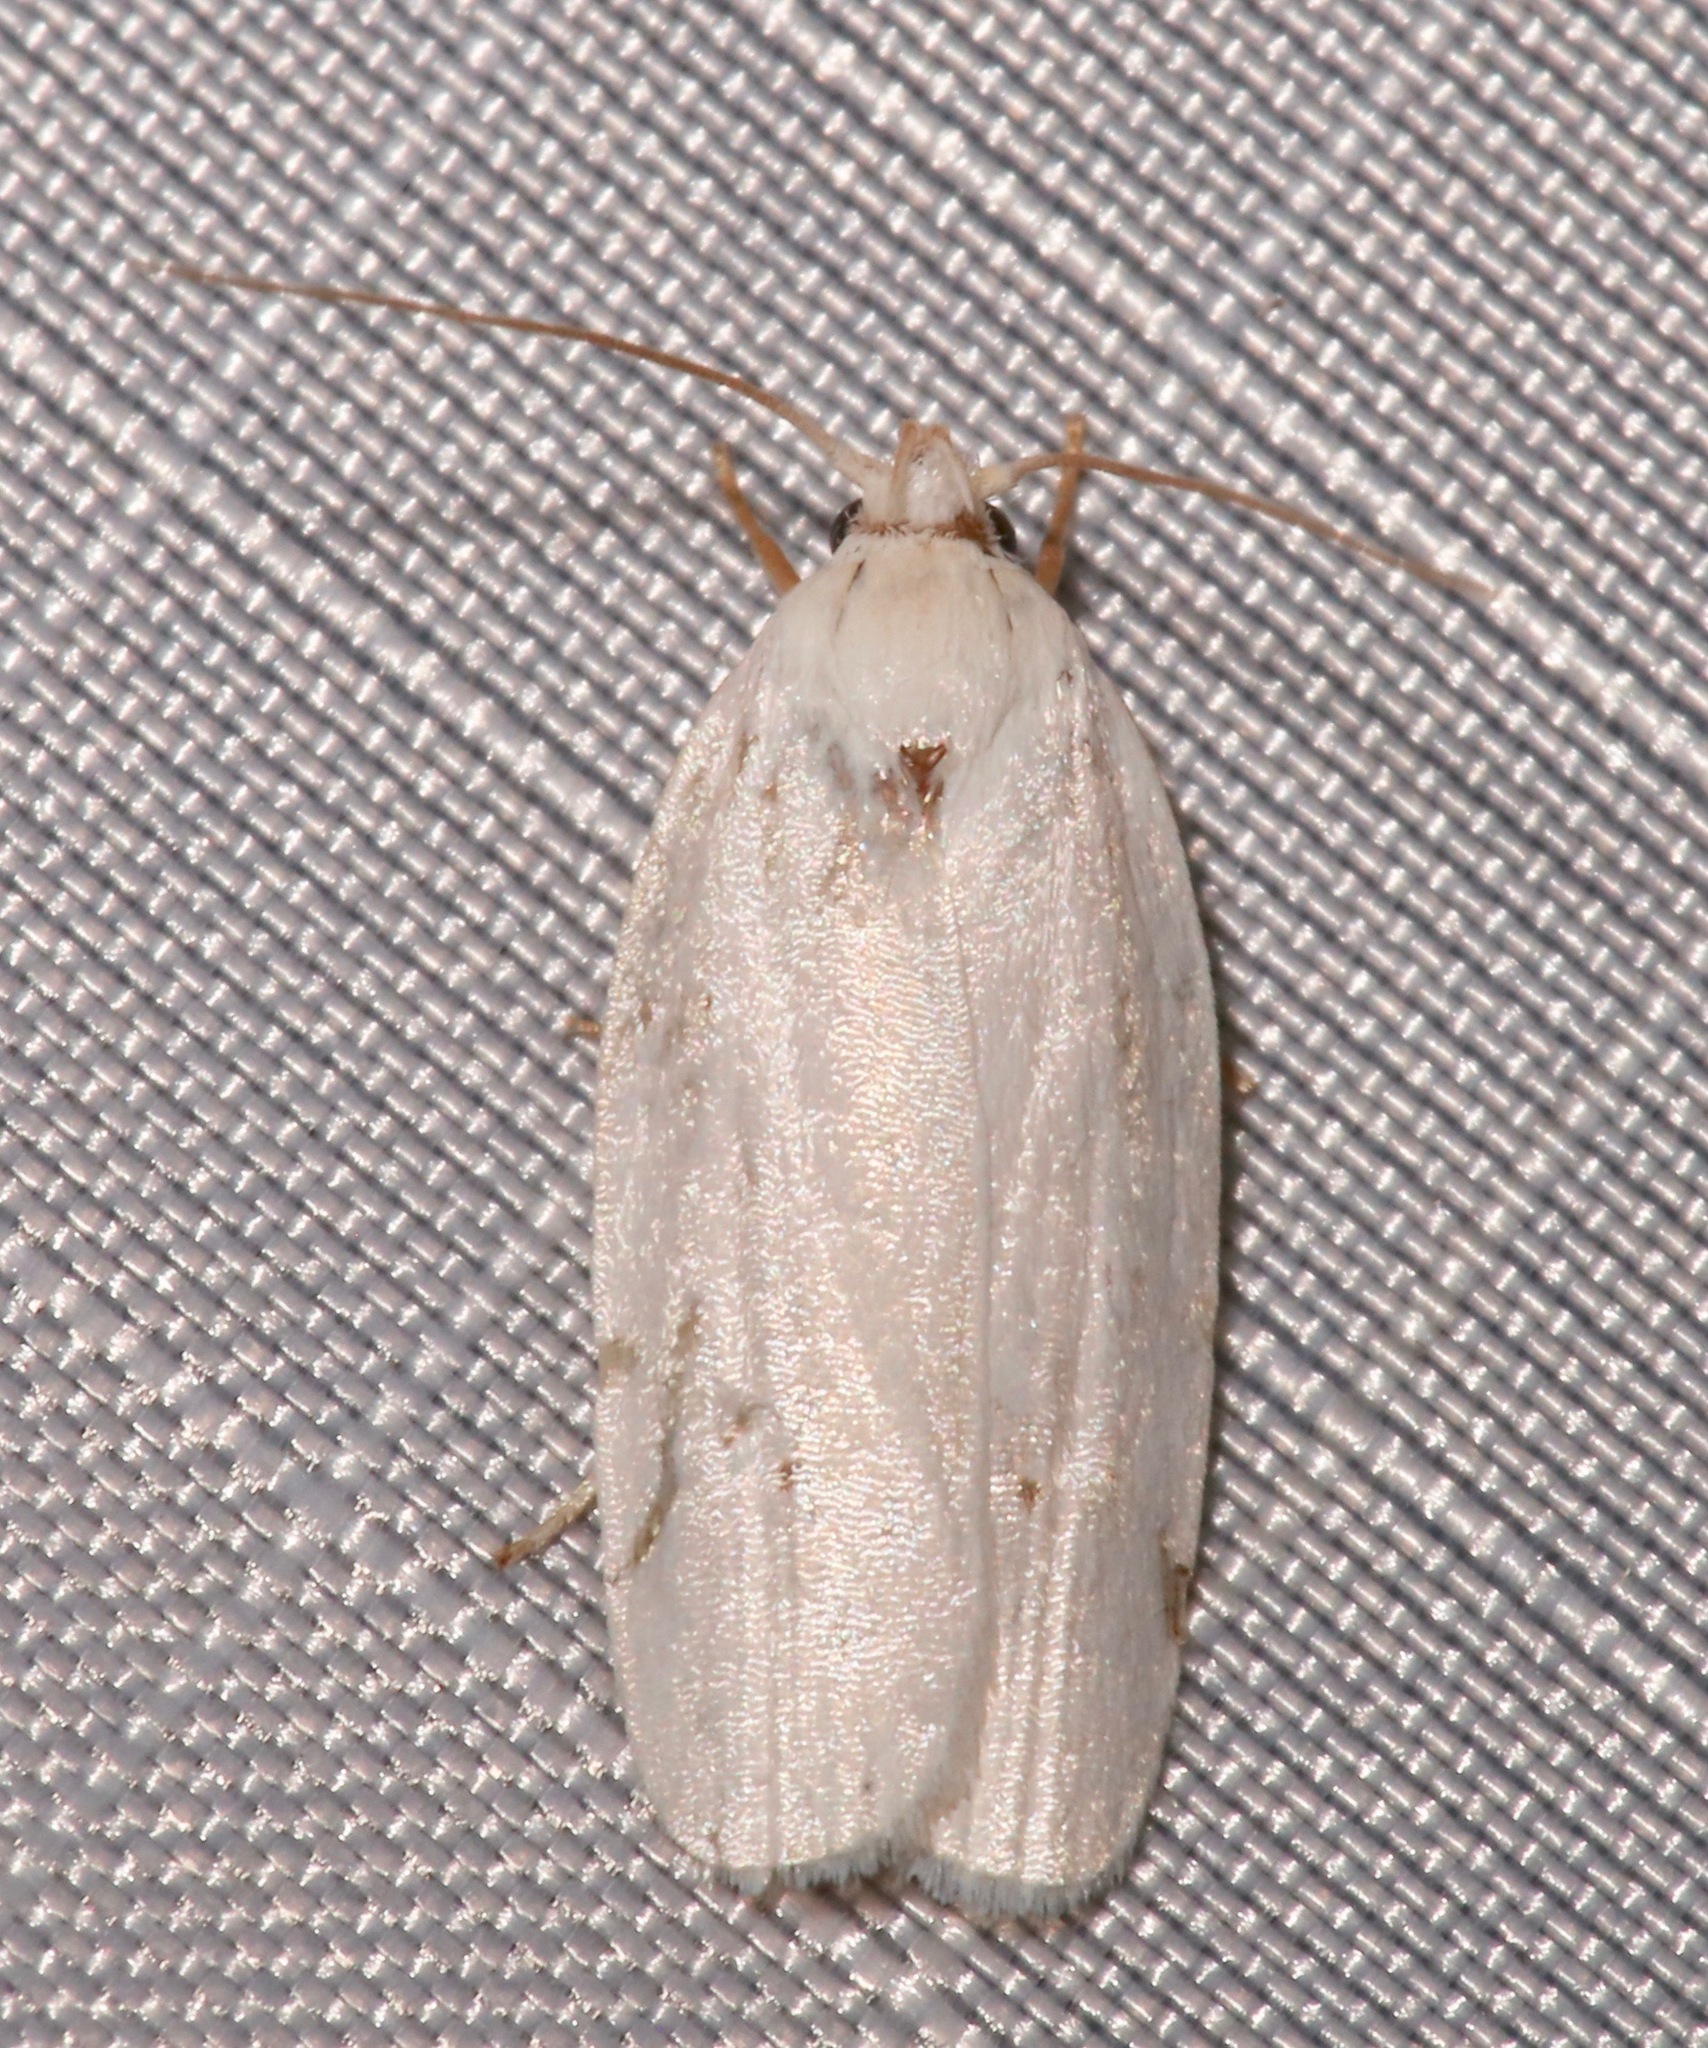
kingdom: Animalia
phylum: Arthropoda
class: Insecta
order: Lepidoptera
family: Depressariidae
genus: Antaeotricha
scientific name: Antaeotricha albulella
